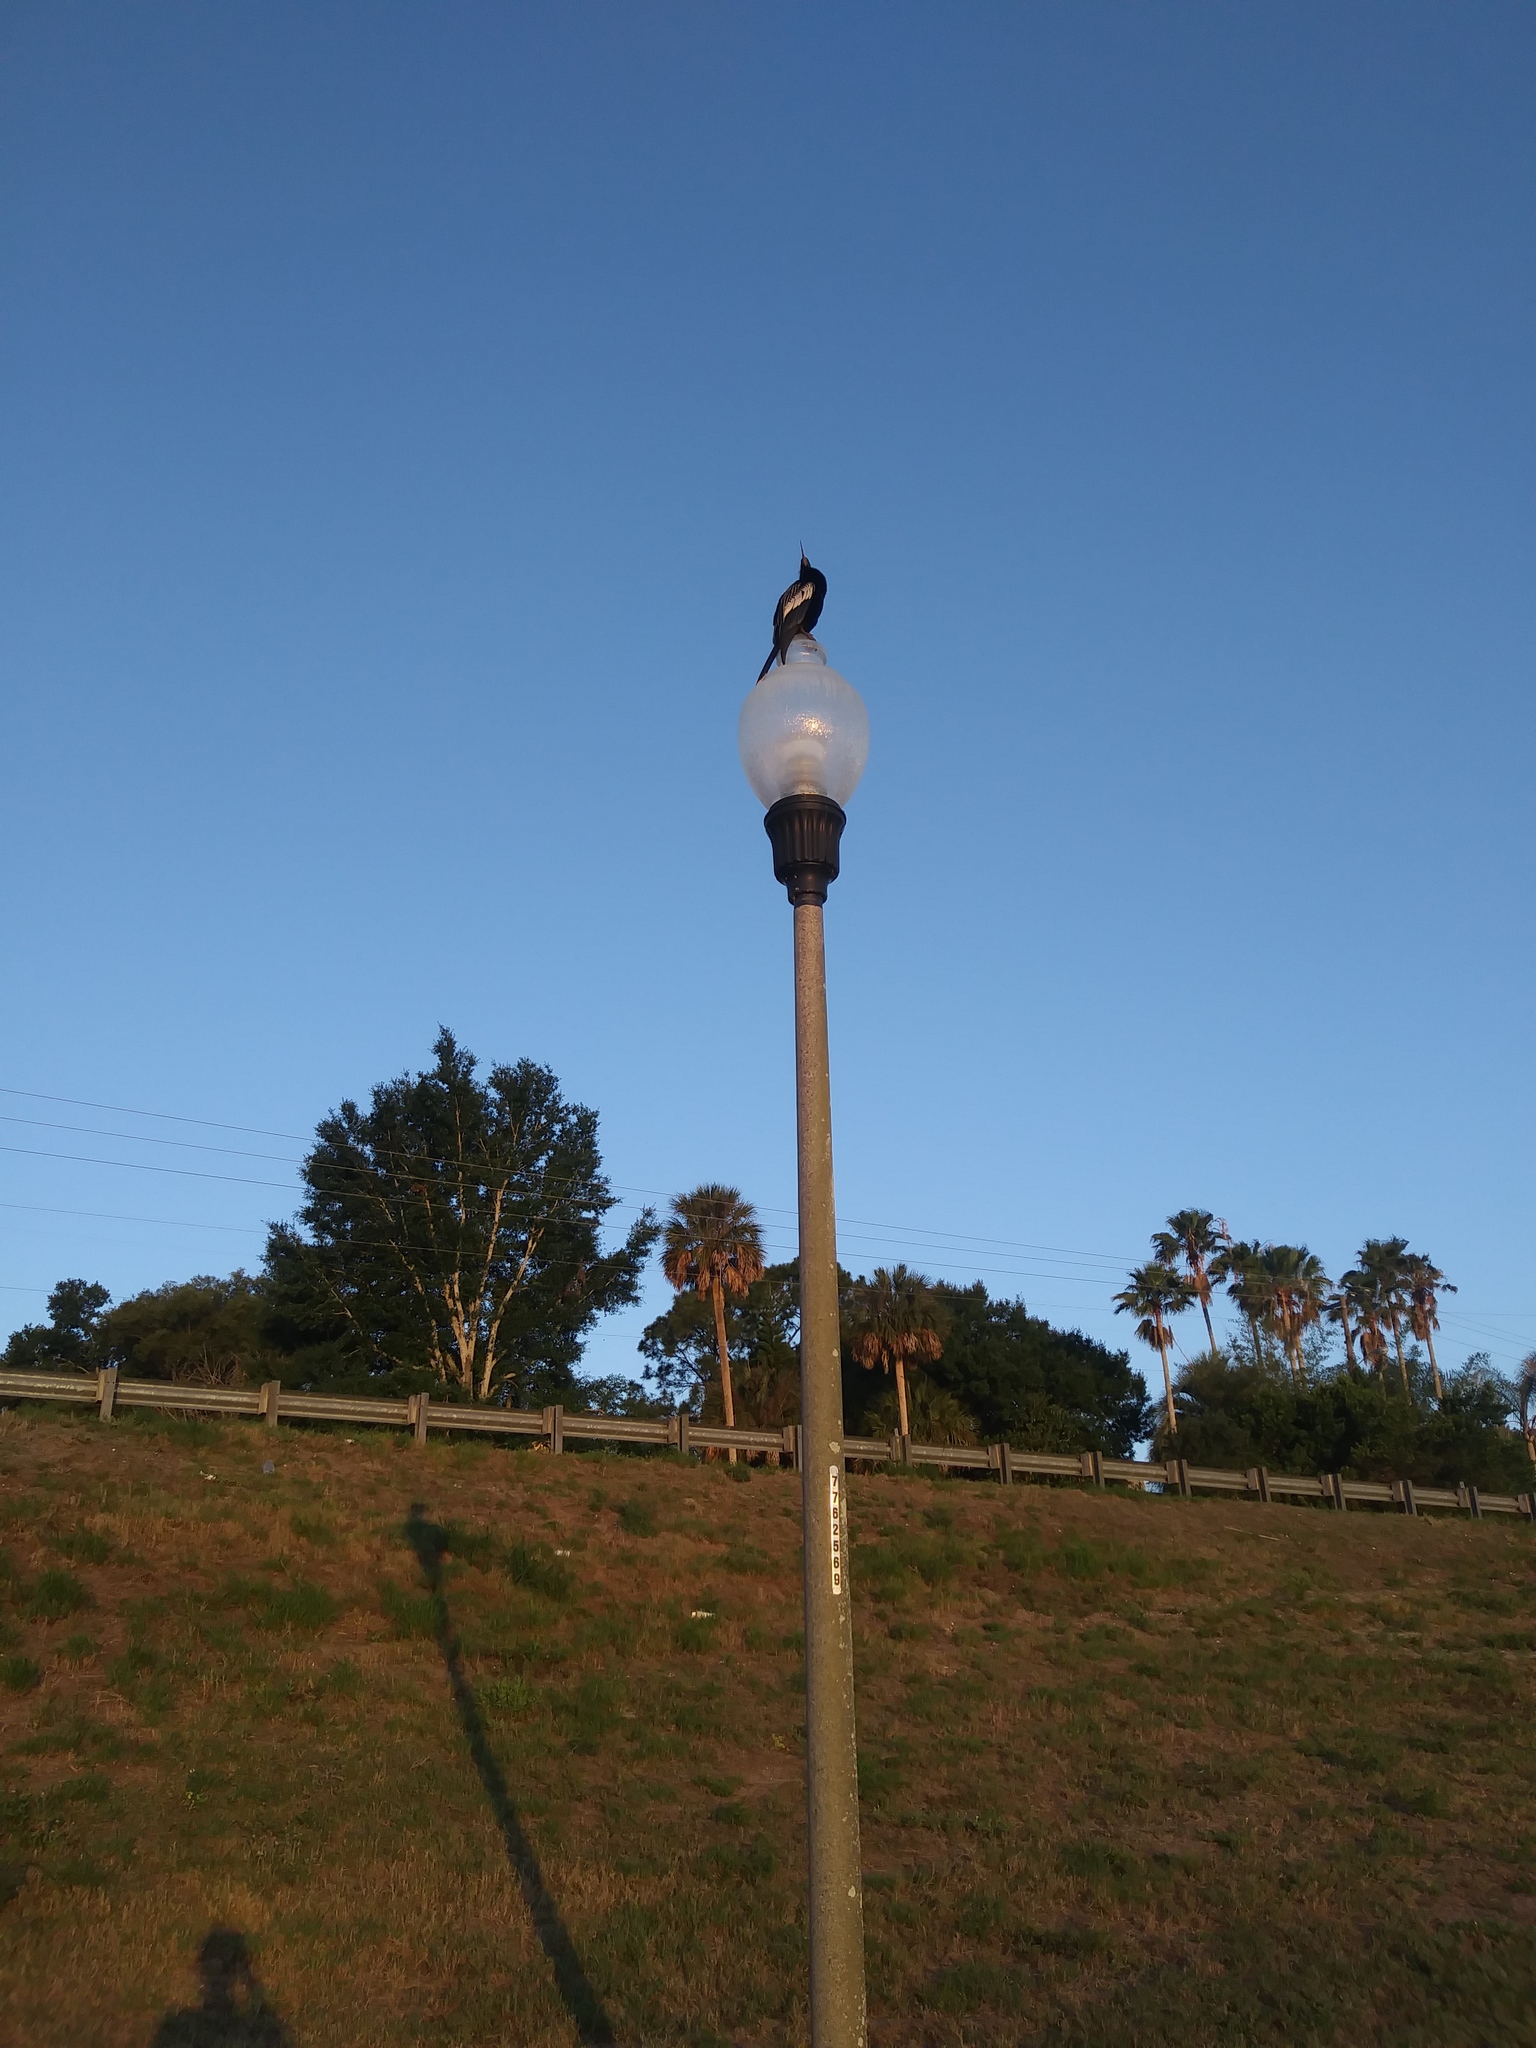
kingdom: Animalia
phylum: Chordata
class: Aves
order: Suliformes
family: Anhingidae
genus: Anhinga
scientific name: Anhinga anhinga
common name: Anhinga
